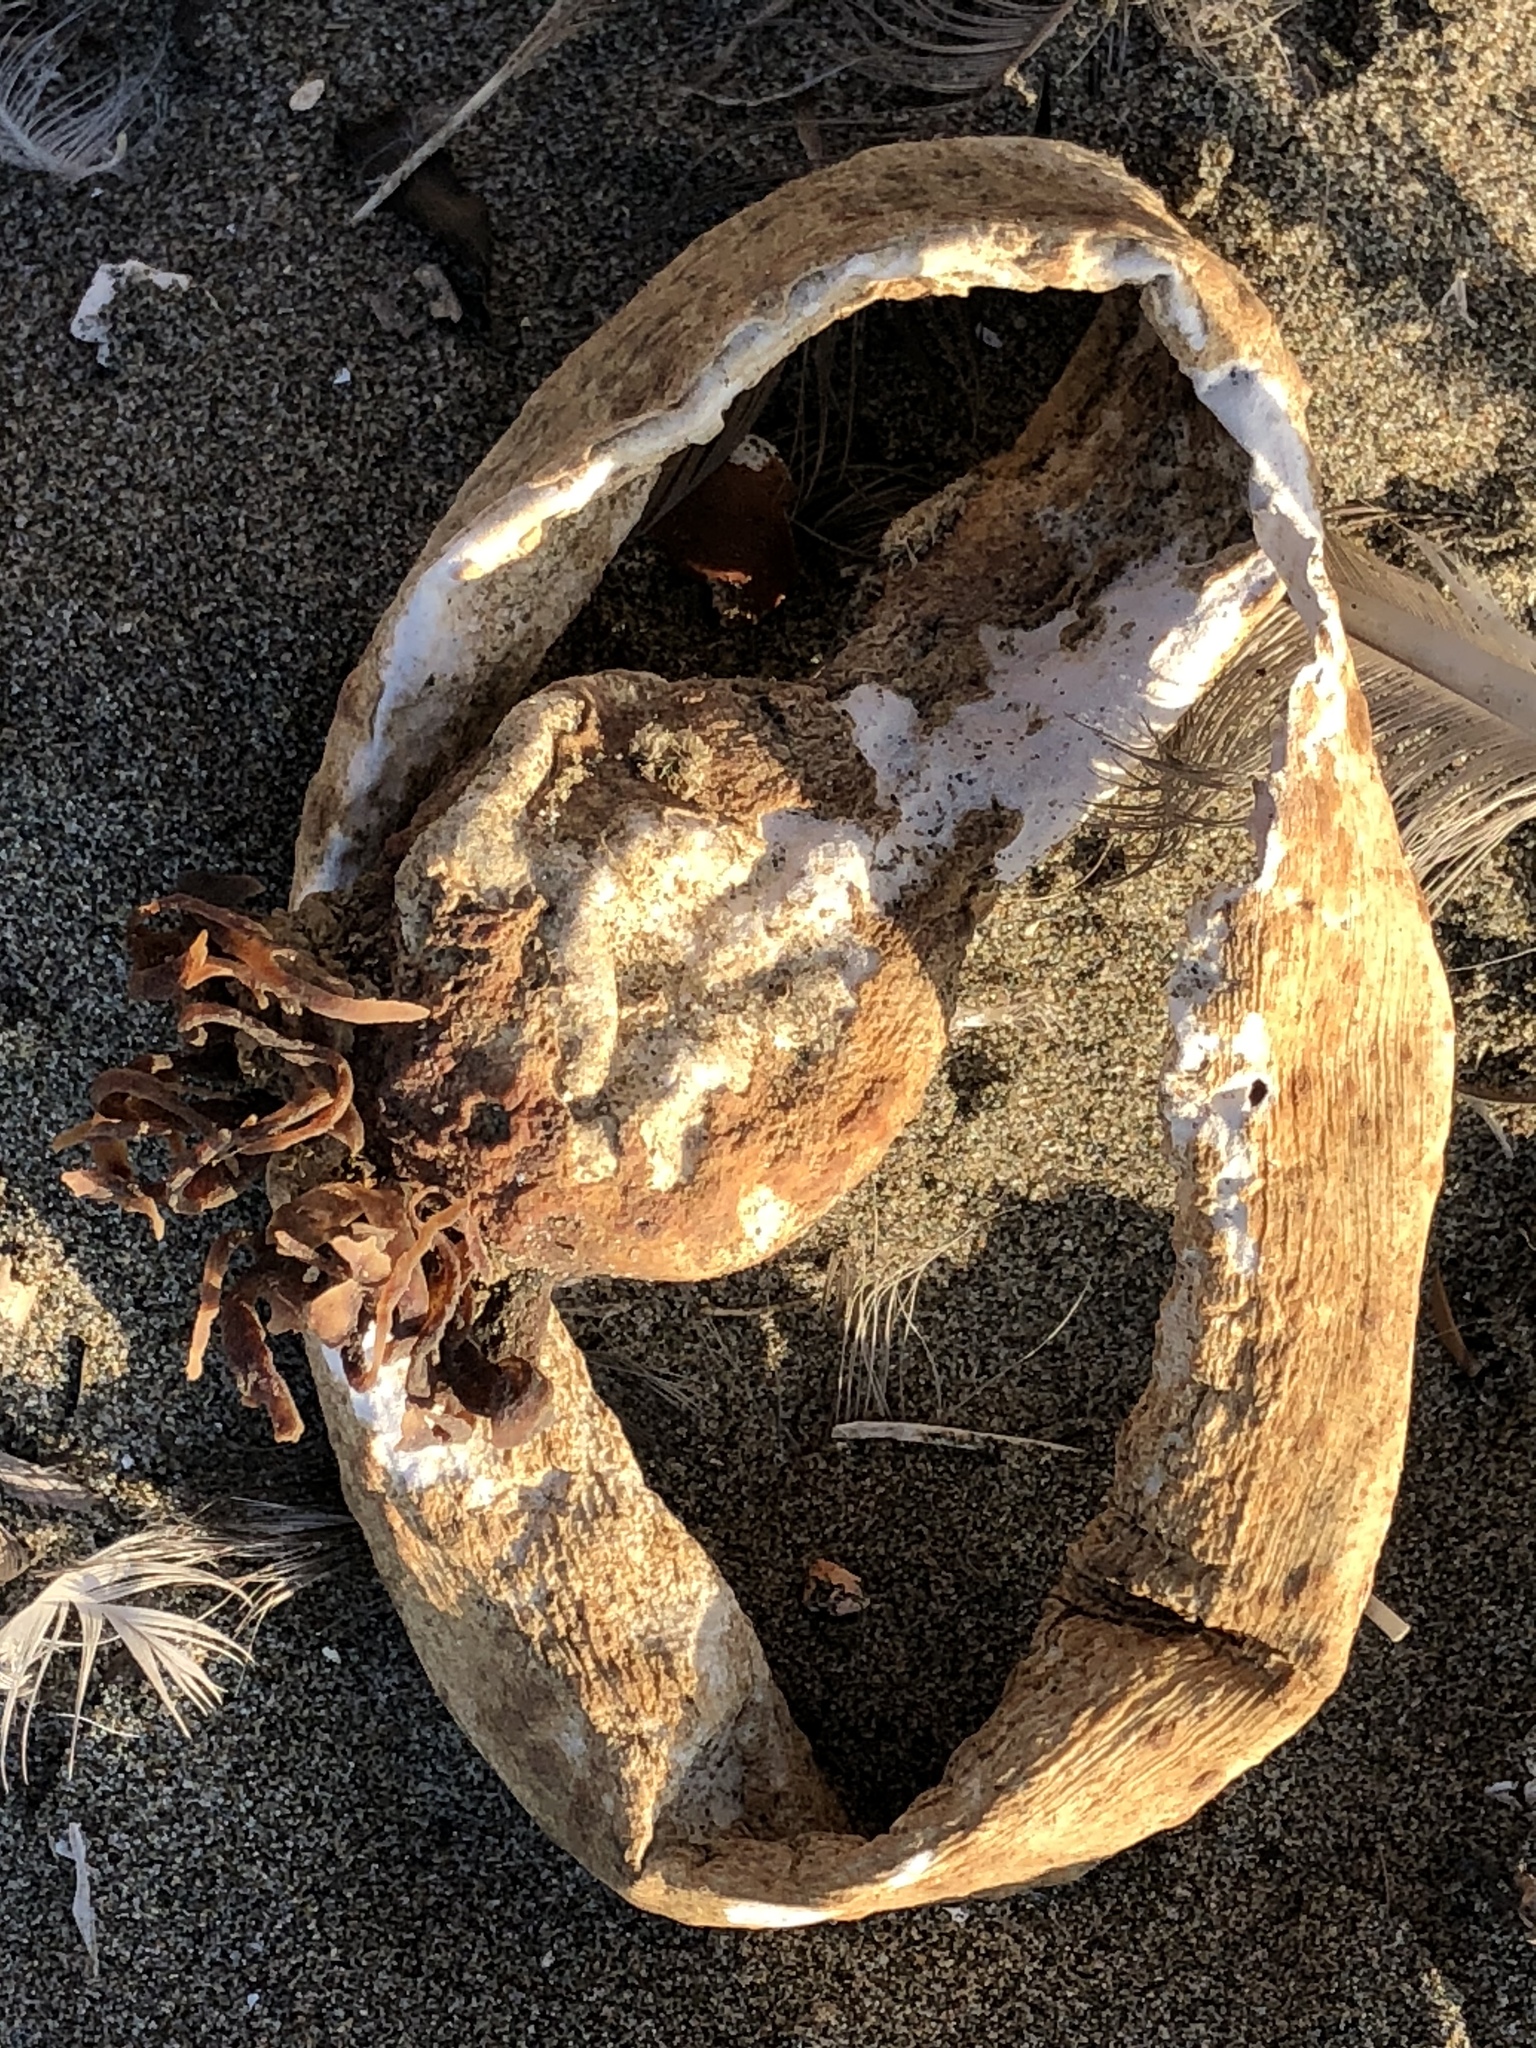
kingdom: Chromista
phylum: Ochrophyta
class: Phaeophyceae
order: Laminariales
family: Laminariaceae
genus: Nereocystis
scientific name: Nereocystis luetkeana
